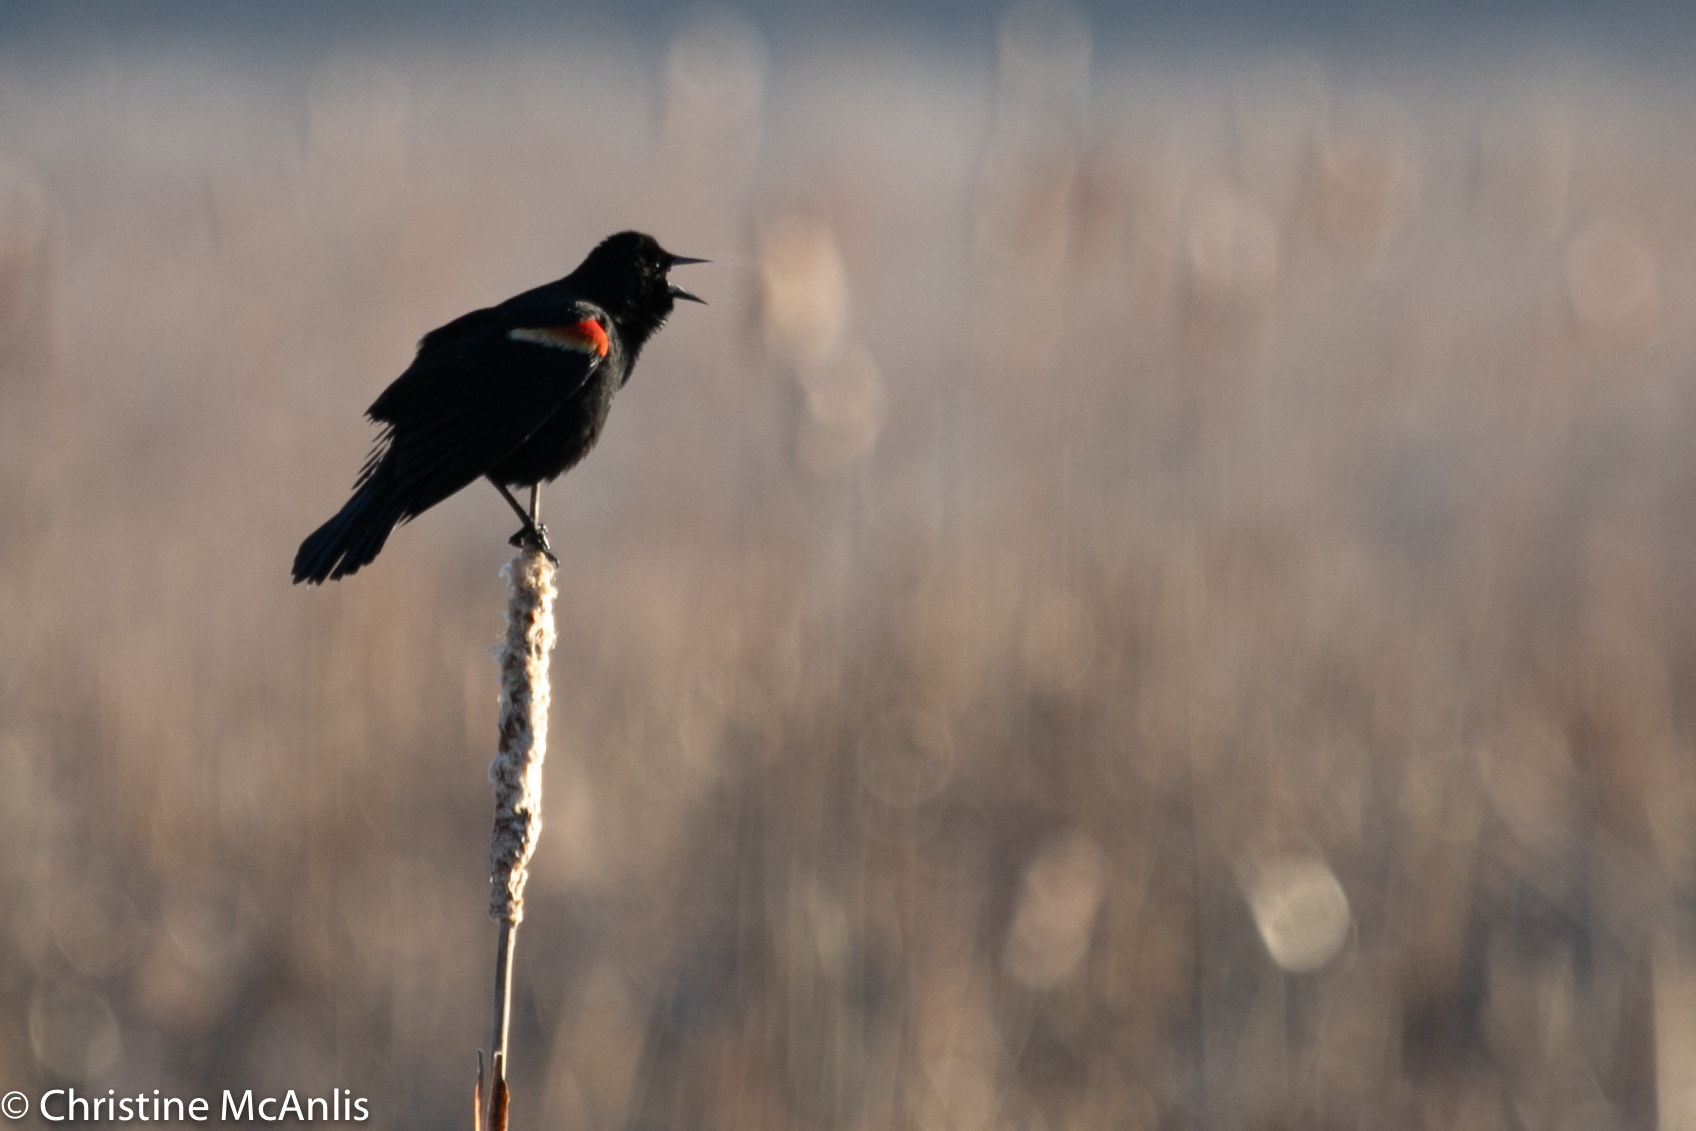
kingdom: Animalia
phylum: Chordata
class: Aves
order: Passeriformes
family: Icteridae
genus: Agelaius
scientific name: Agelaius phoeniceus
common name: Red-winged blackbird
